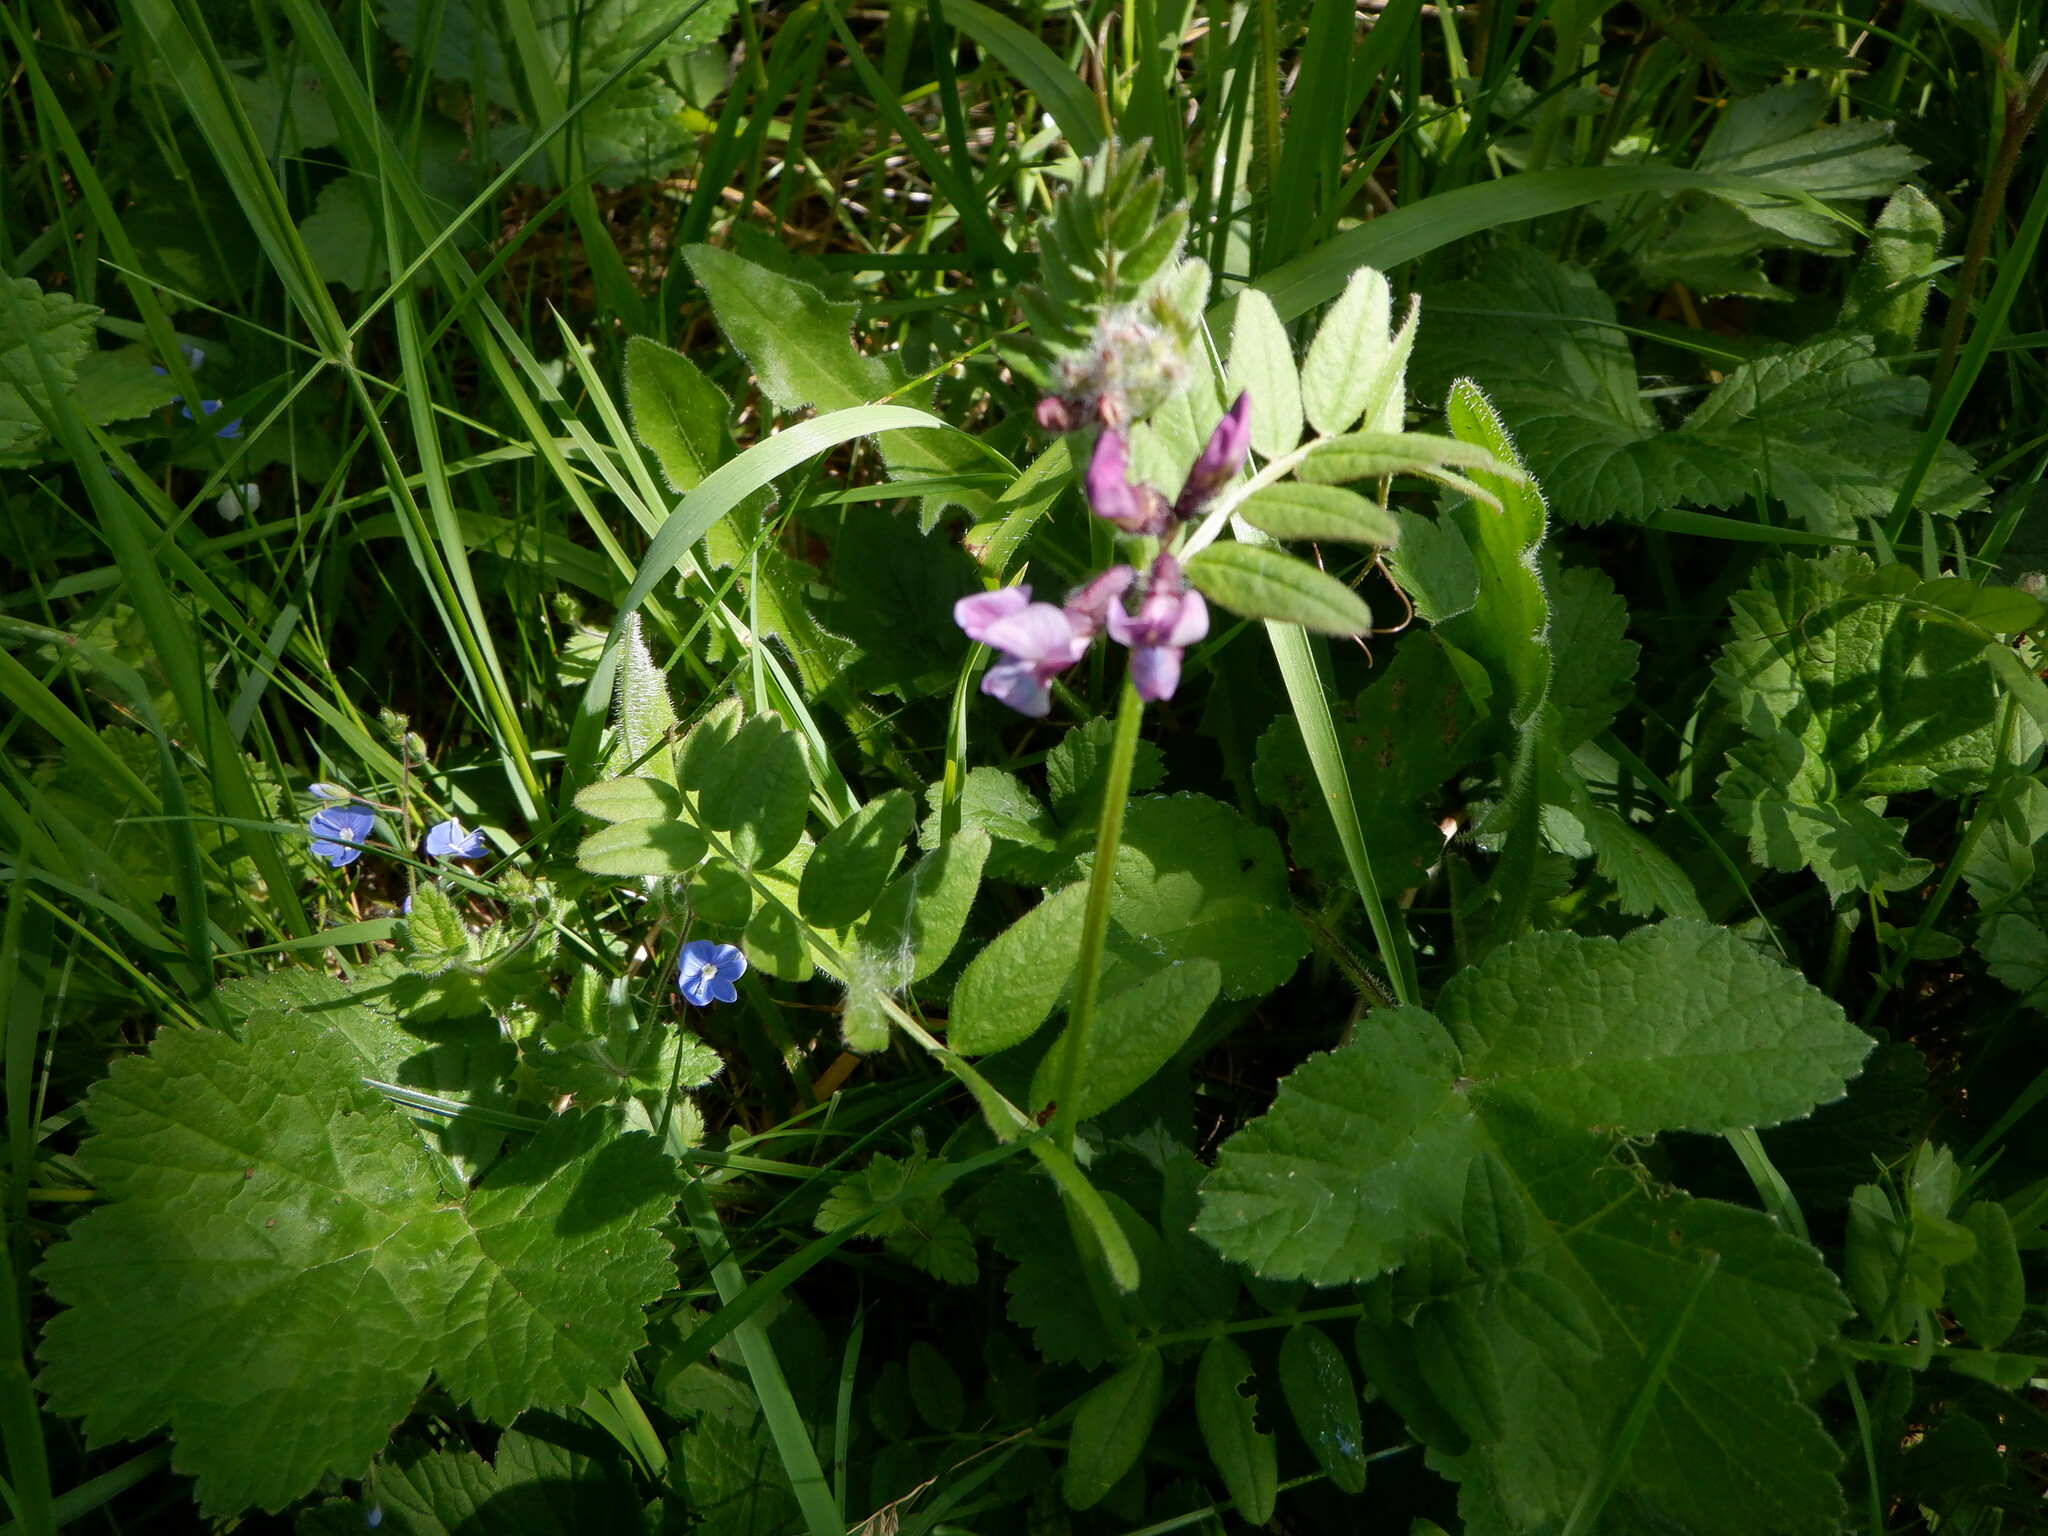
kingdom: Plantae
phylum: Tracheophyta
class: Magnoliopsida
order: Fabales
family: Fabaceae
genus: Vicia
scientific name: Vicia sepium
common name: Bush vetch
